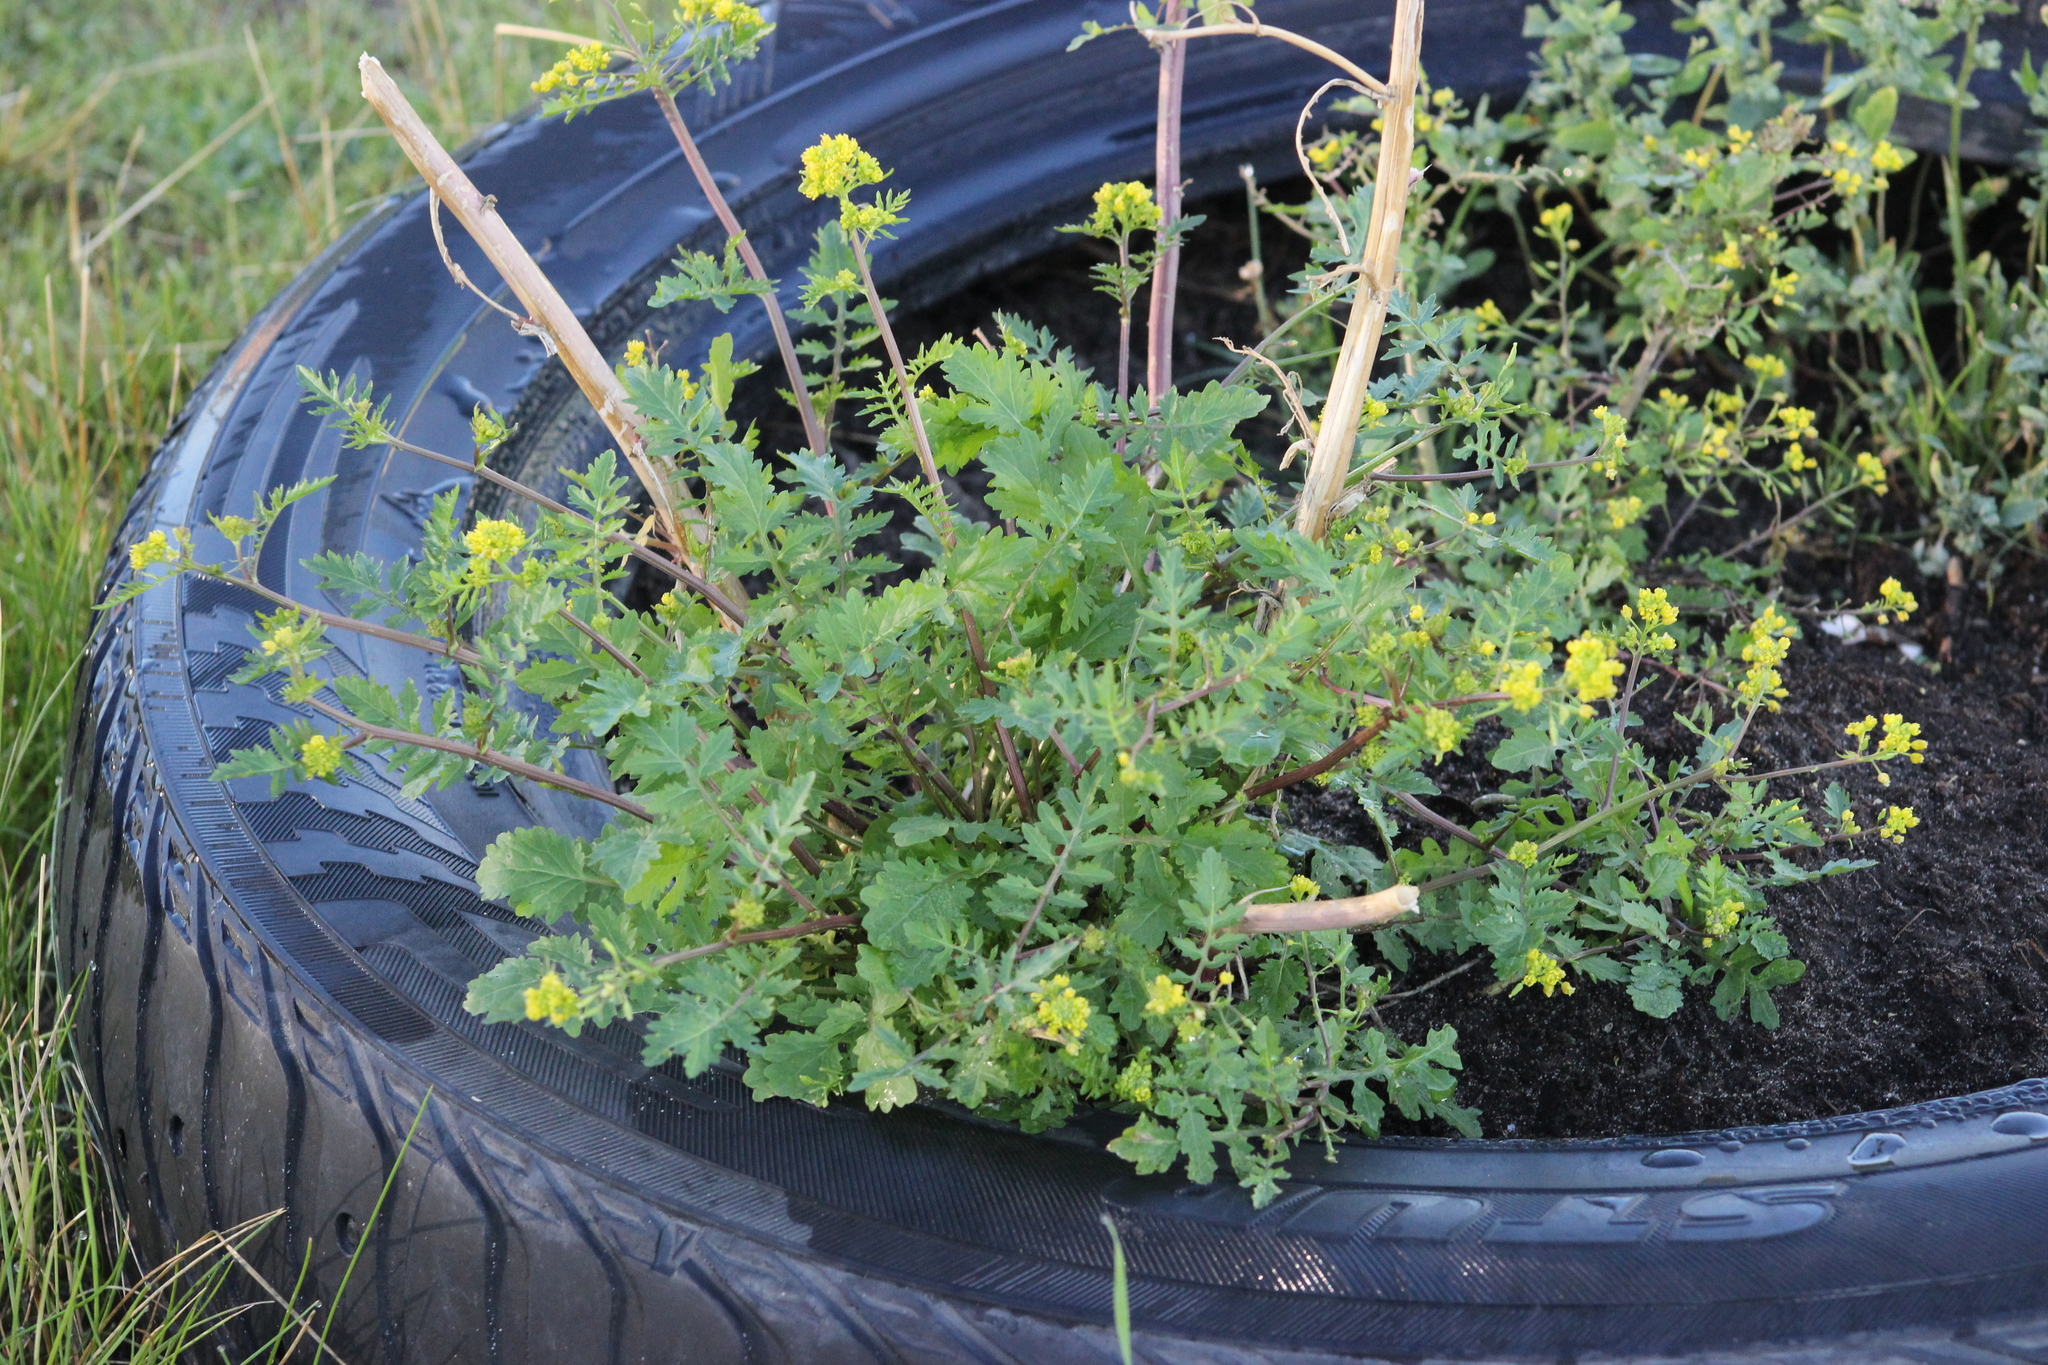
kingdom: Plantae
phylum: Tracheophyta
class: Magnoliopsida
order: Brassicales
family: Brassicaceae
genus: Rorippa
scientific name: Rorippa palustris
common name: Marsh yellow-cress
